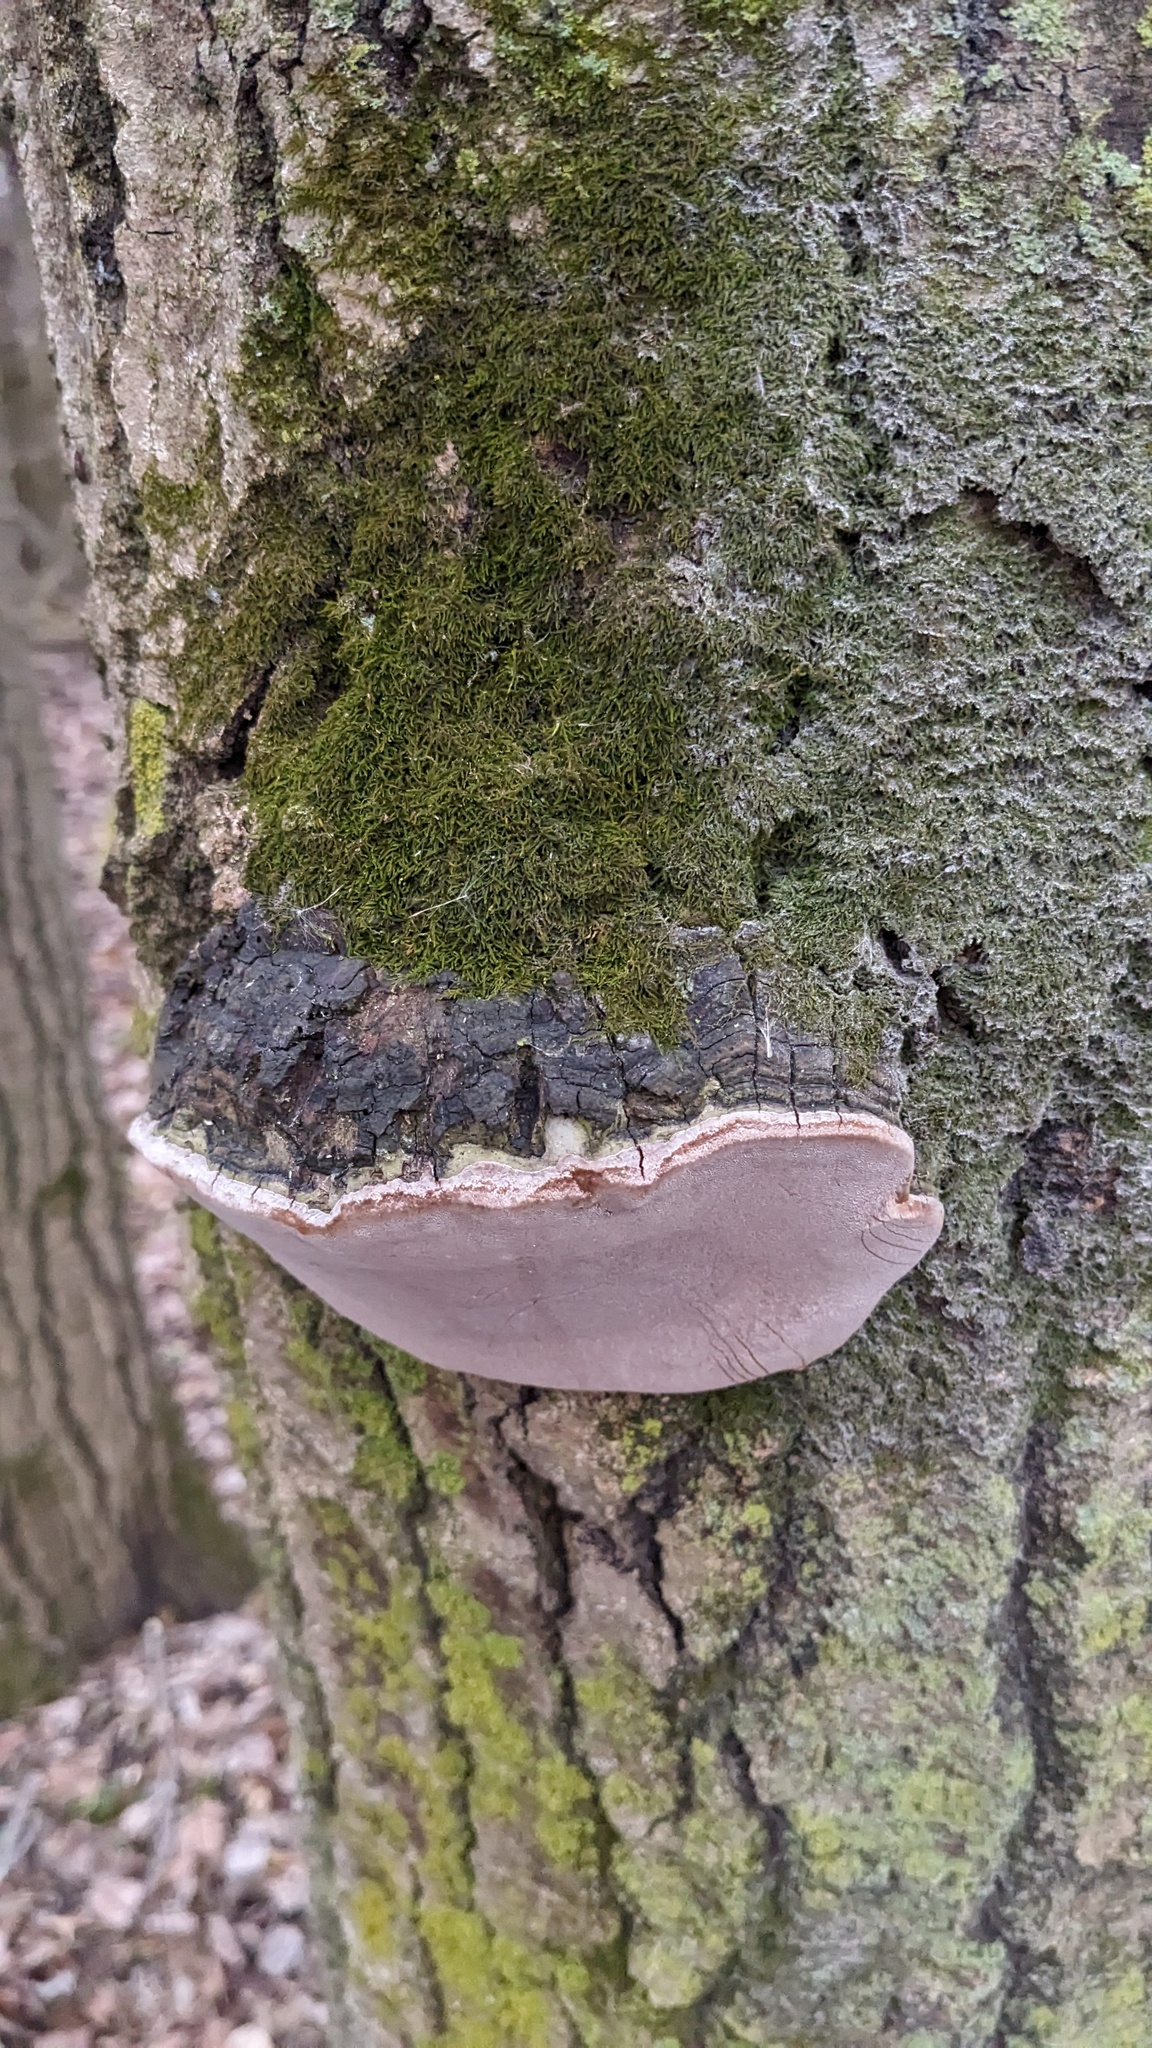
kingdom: Fungi
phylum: Basidiomycota
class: Agaricomycetes
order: Hymenochaetales
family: Hymenochaetaceae
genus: Phellinus
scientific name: Phellinus tremulae
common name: Aspen bracket
